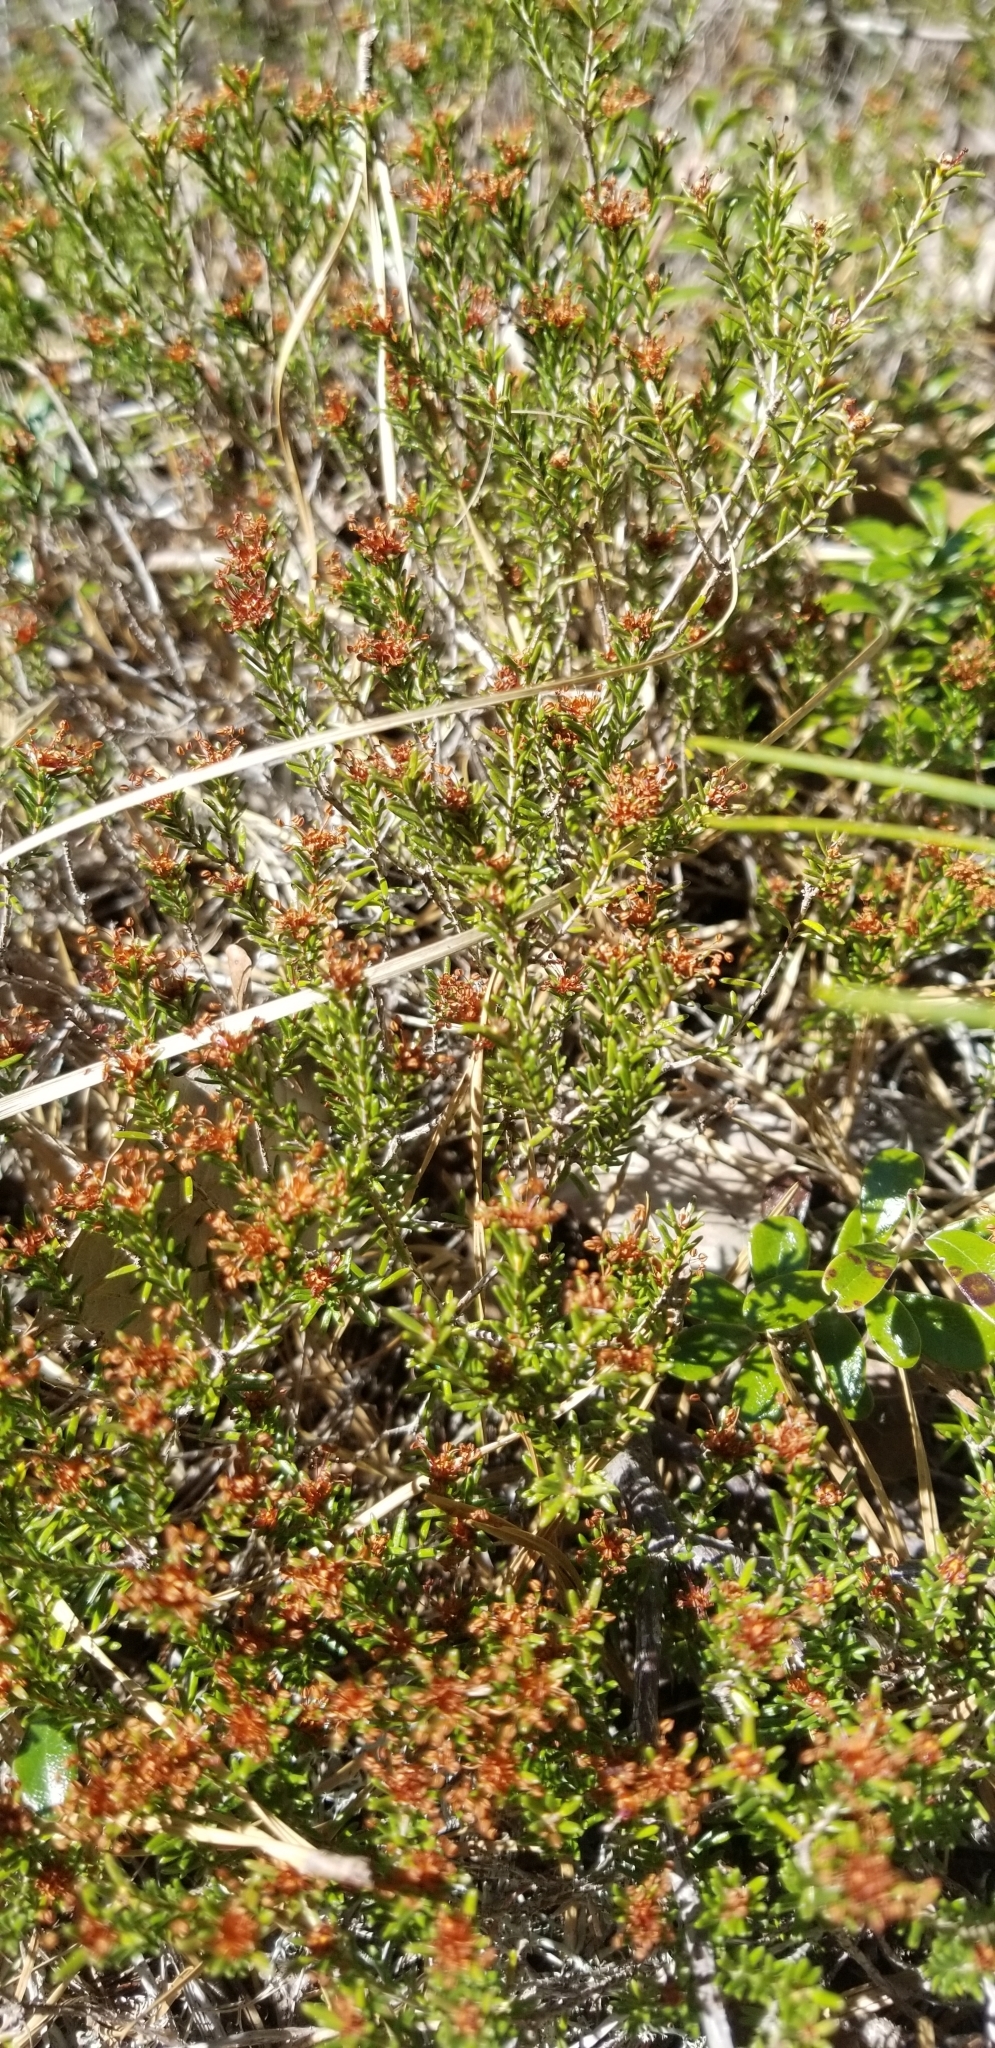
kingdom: Plantae
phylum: Tracheophyta
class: Magnoliopsida
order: Ericales
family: Ericaceae
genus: Corema
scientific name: Corema conradii
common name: Broom-crowberry
